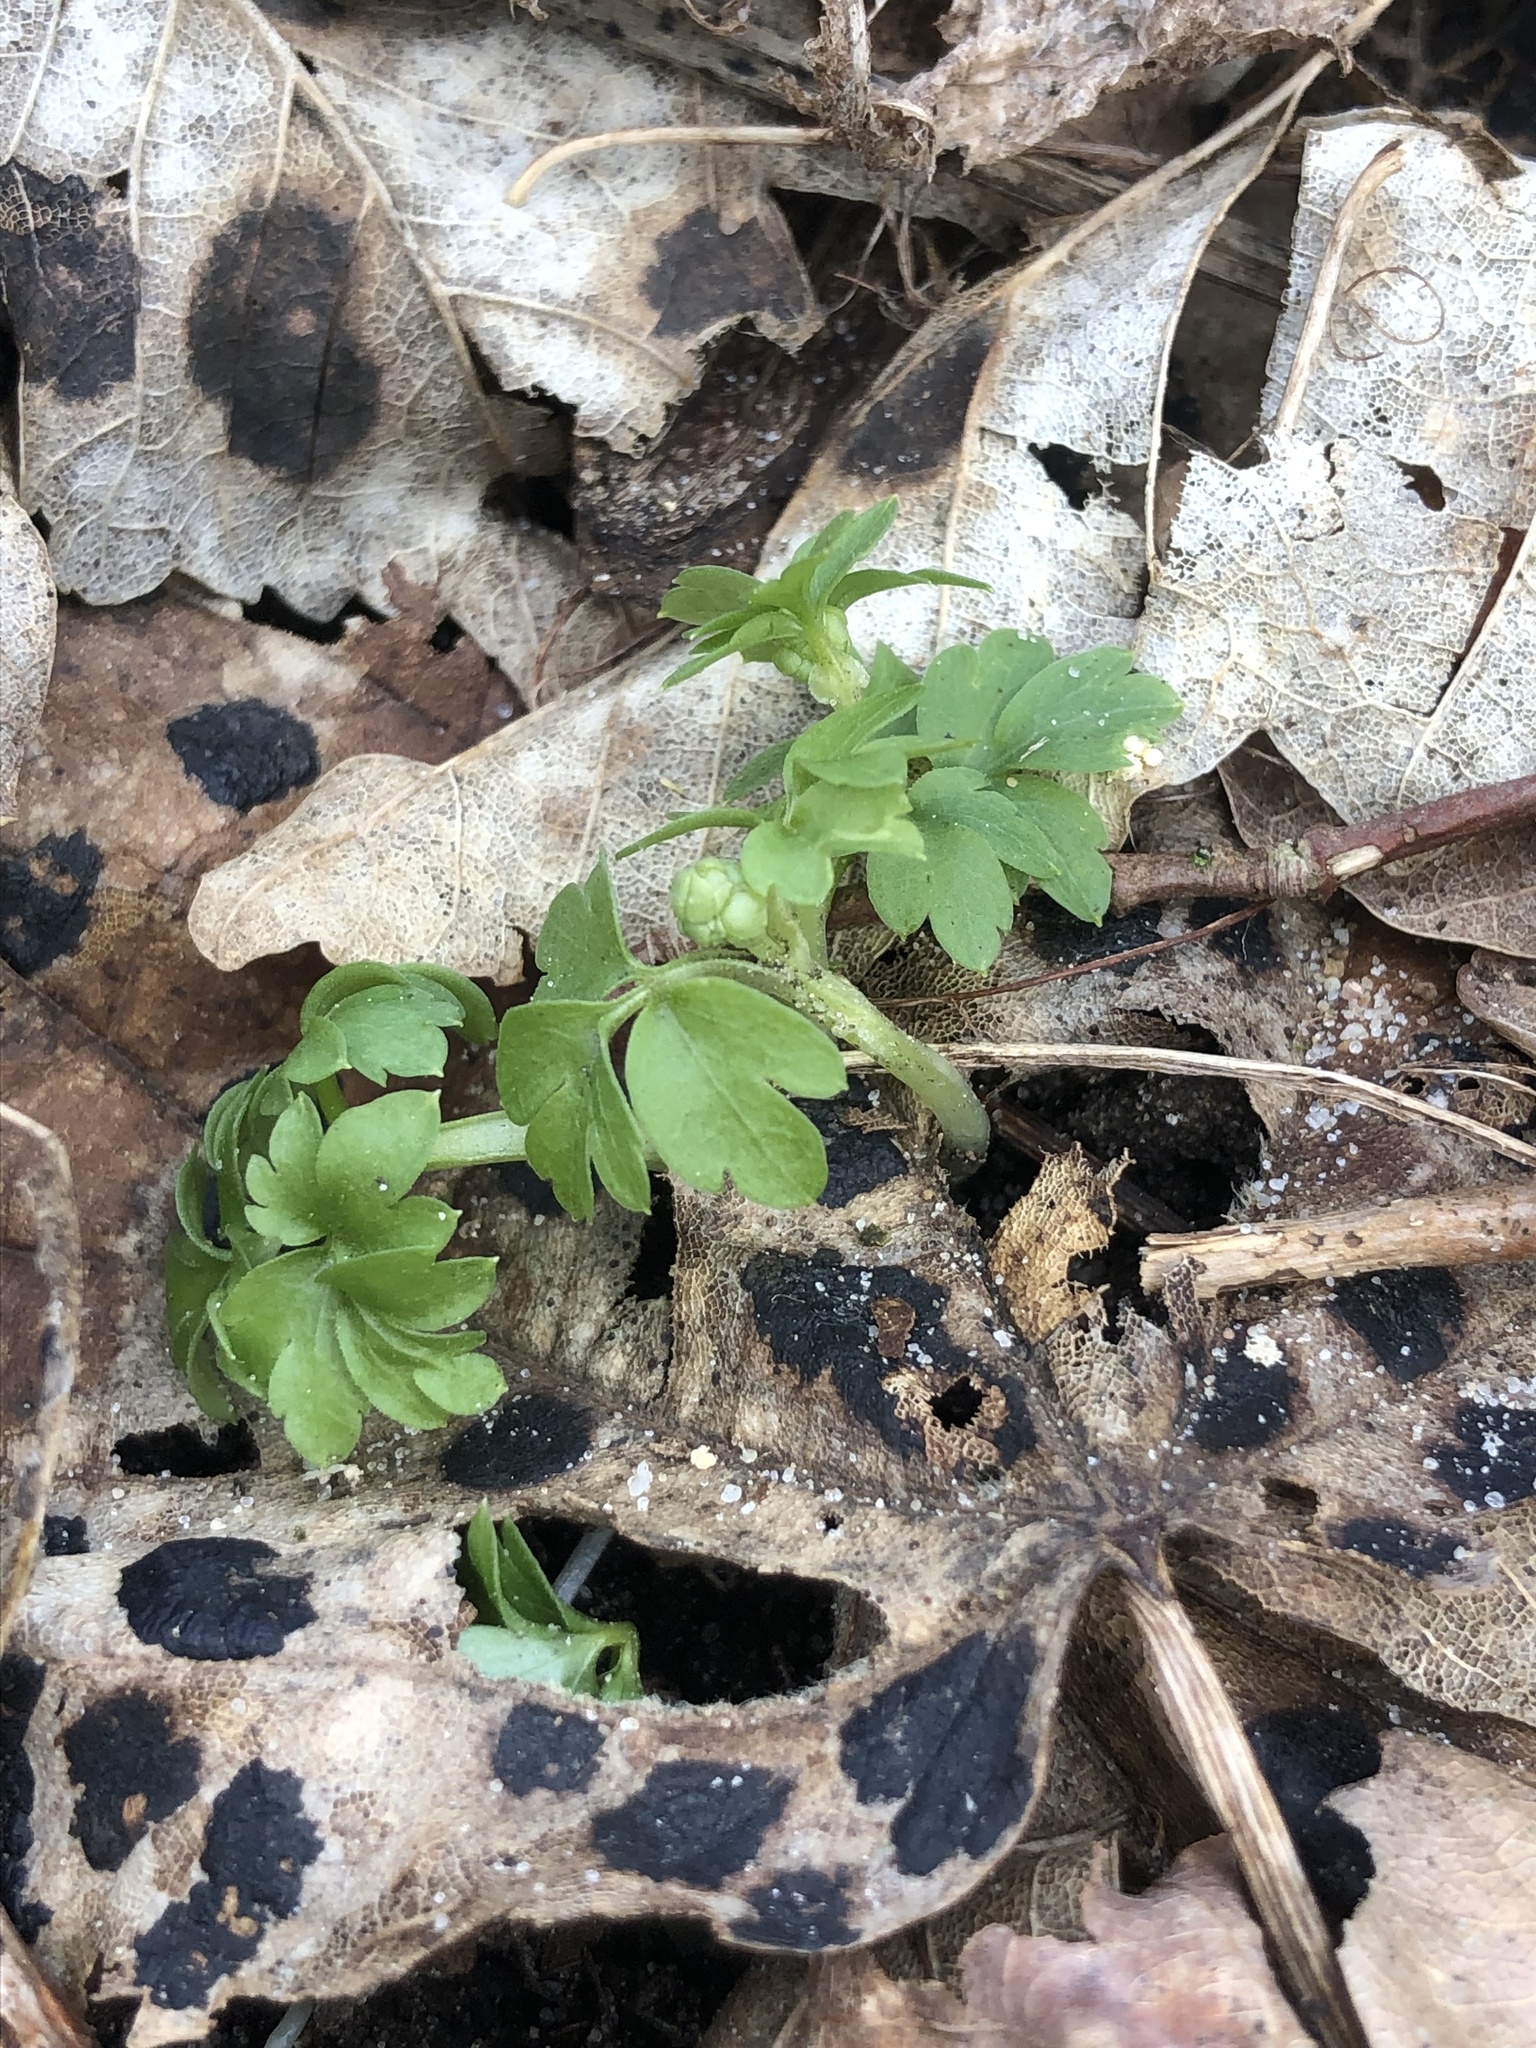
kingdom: Plantae
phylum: Tracheophyta
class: Magnoliopsida
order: Dipsacales
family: Viburnaceae
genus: Adoxa
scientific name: Adoxa moschatellina
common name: Moschatel
